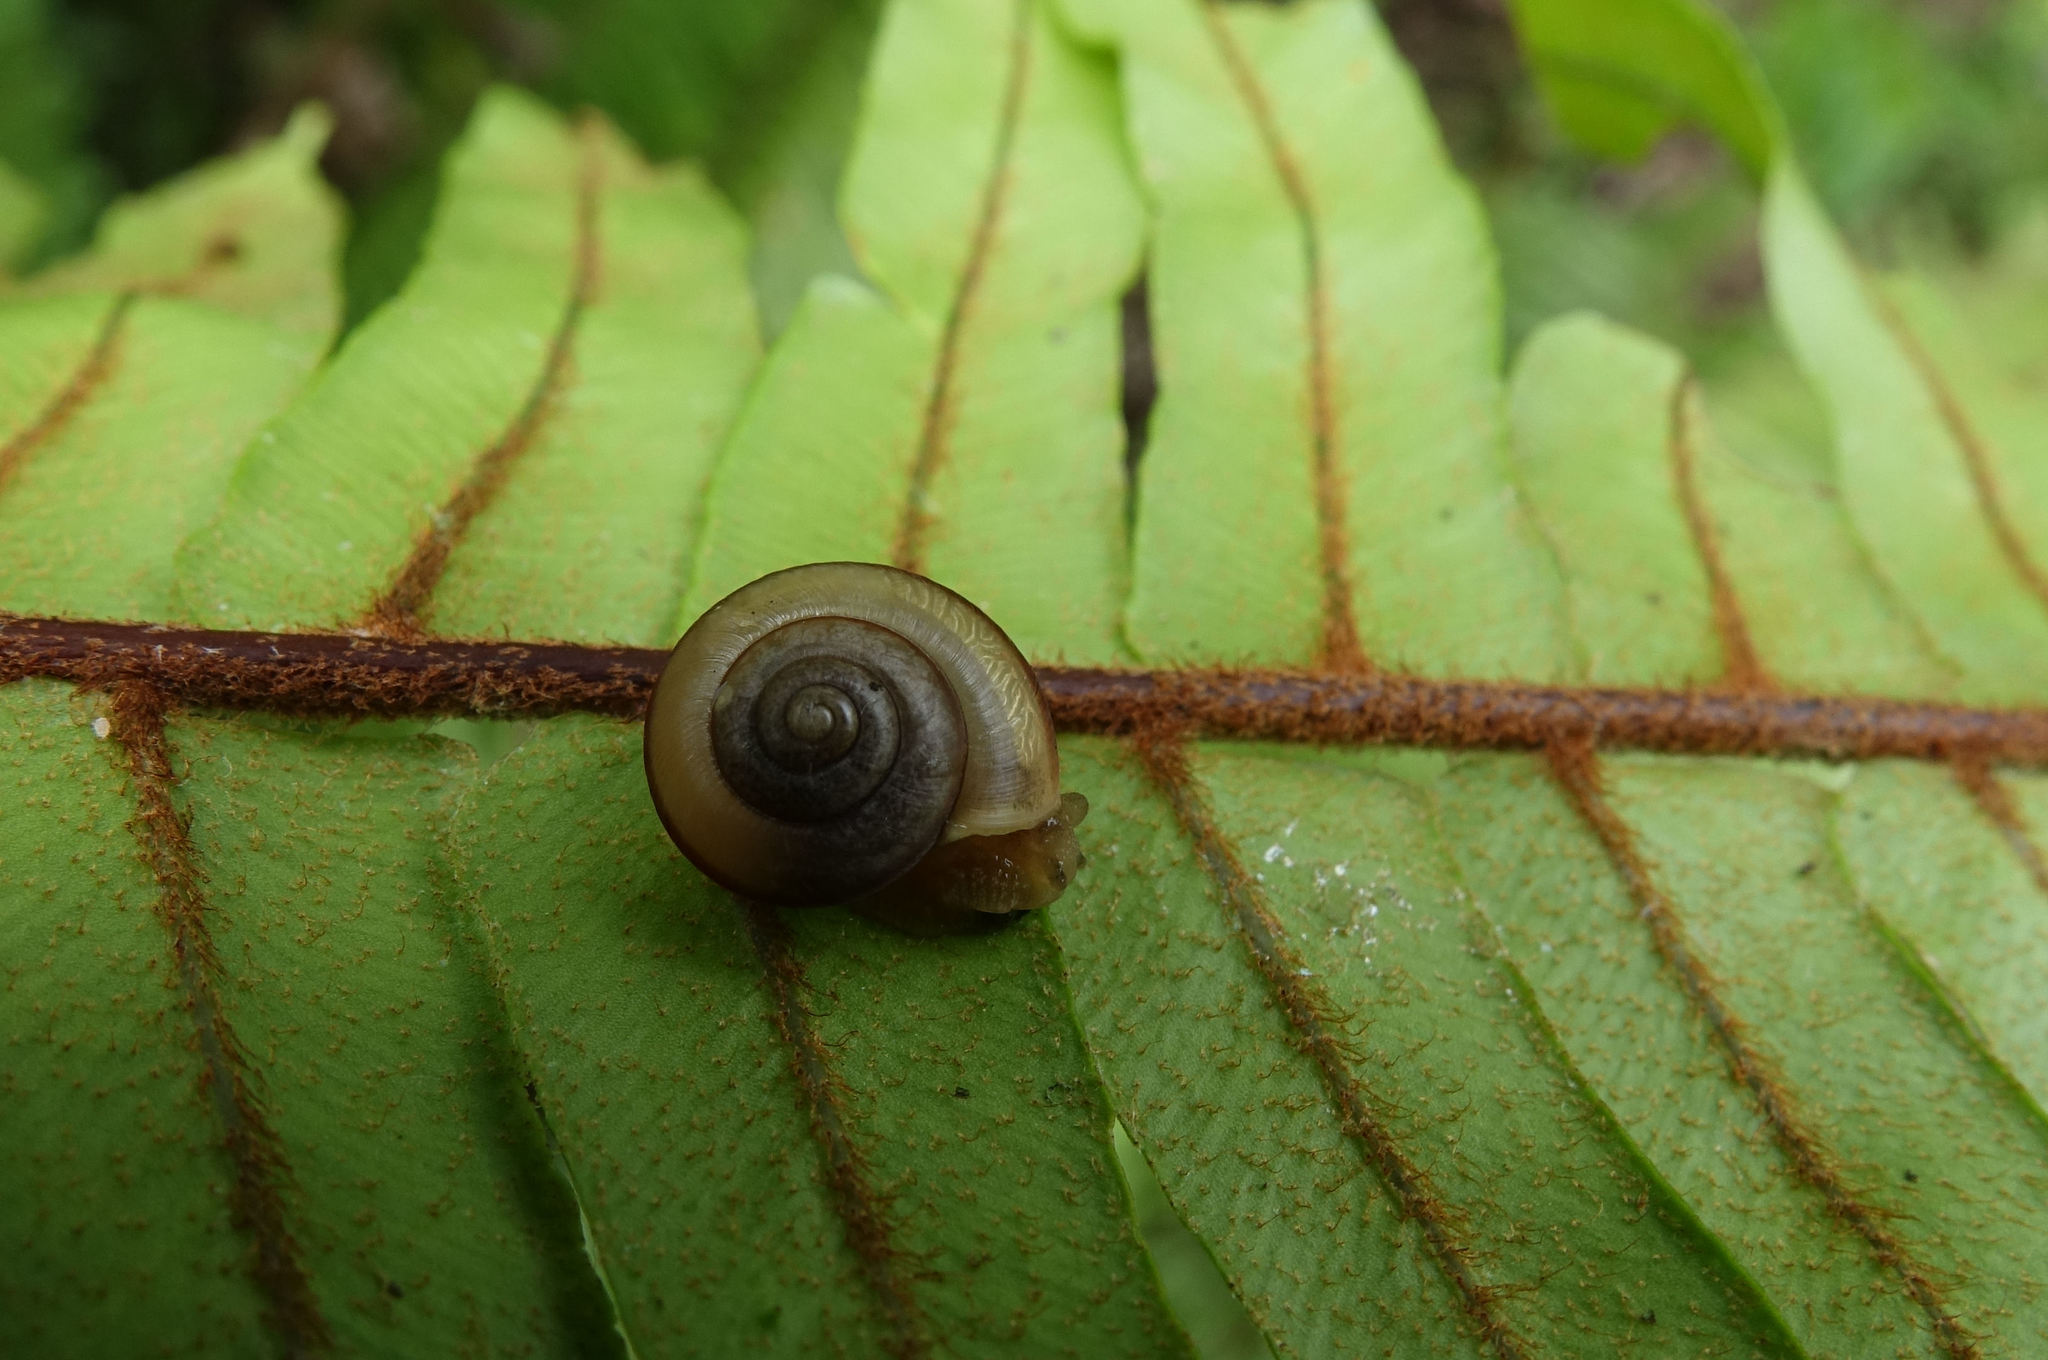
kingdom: Animalia
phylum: Mollusca
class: Gastropoda
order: Stylommatophora
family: Camaenidae
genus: Bradybaena
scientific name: Bradybaena similaris
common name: Asian trampsnail
